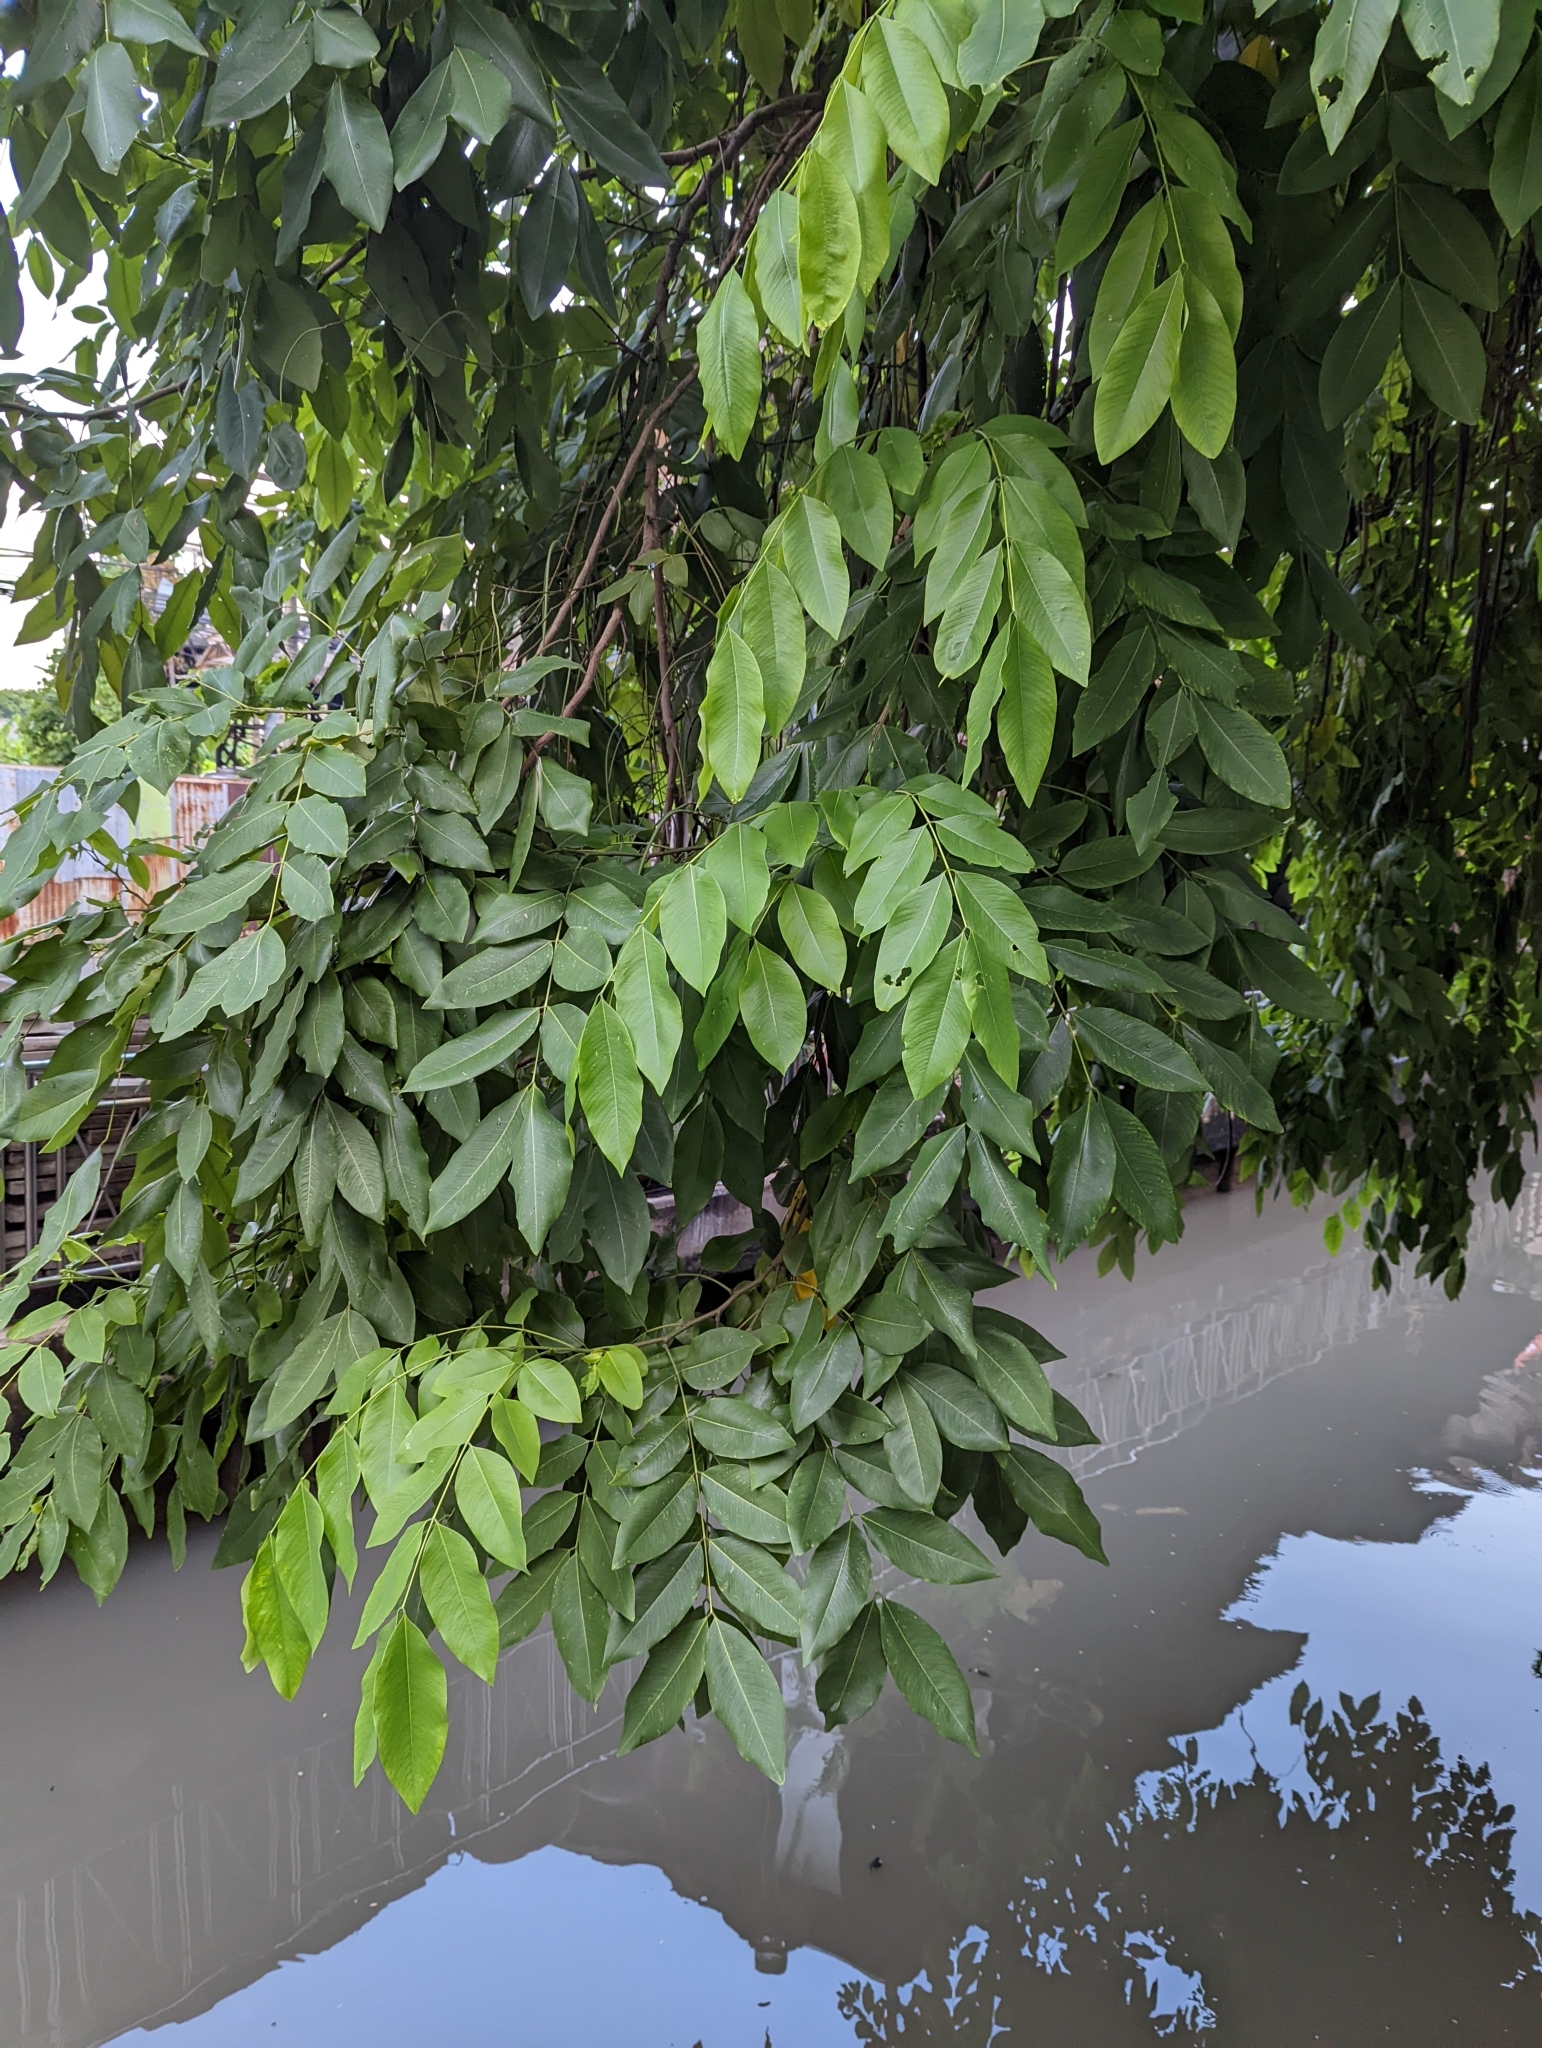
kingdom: Plantae
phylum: Tracheophyta
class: Magnoliopsida
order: Fabales
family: Fabaceae
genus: Cassia
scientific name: Cassia fistula
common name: Golden shower
